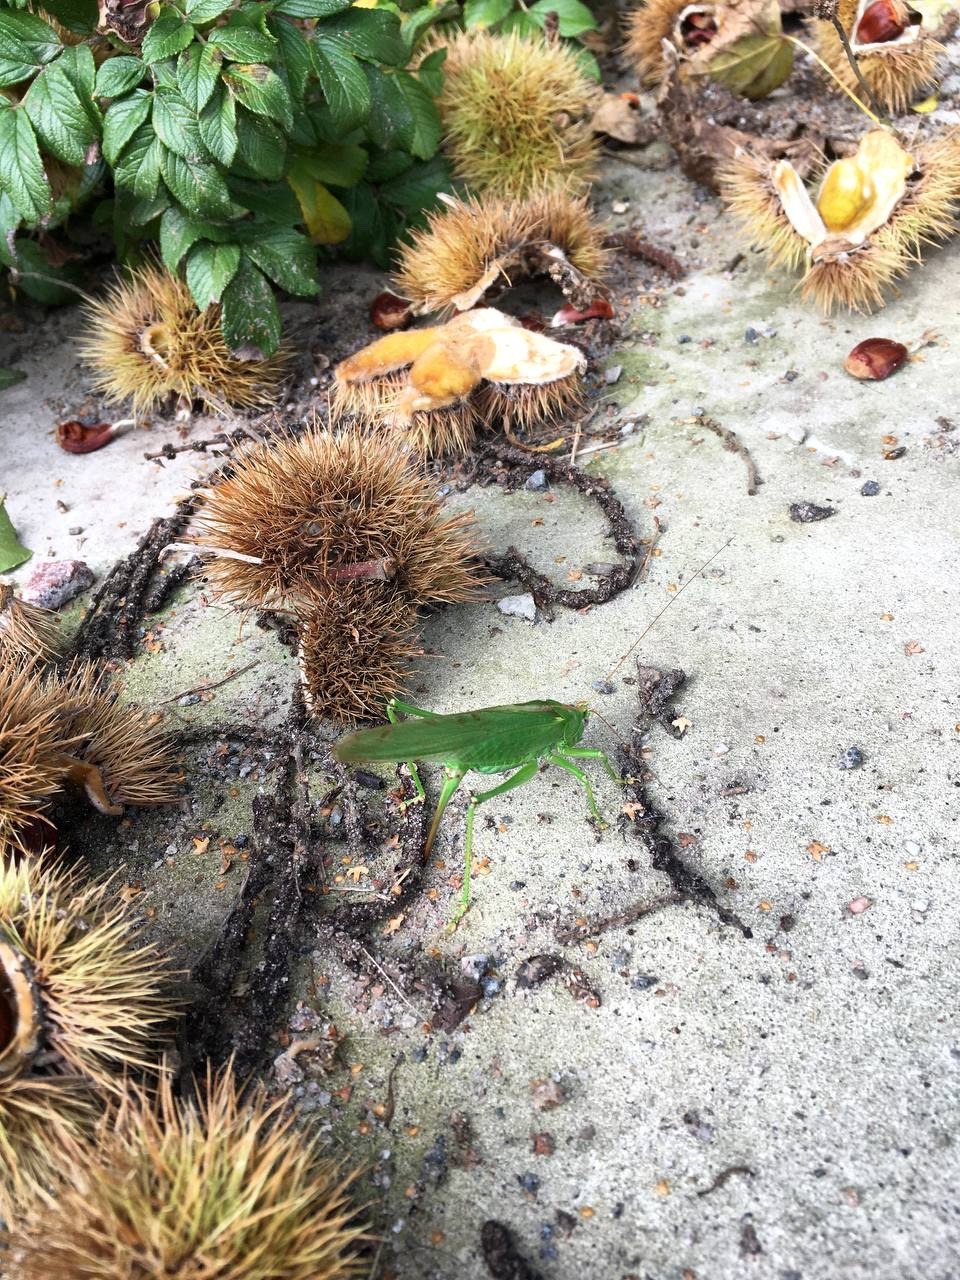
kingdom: Animalia
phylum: Arthropoda
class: Insecta
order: Orthoptera
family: Tettigoniidae
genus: Tettigonia
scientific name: Tettigonia viridissima
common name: Great green bush-cricket
